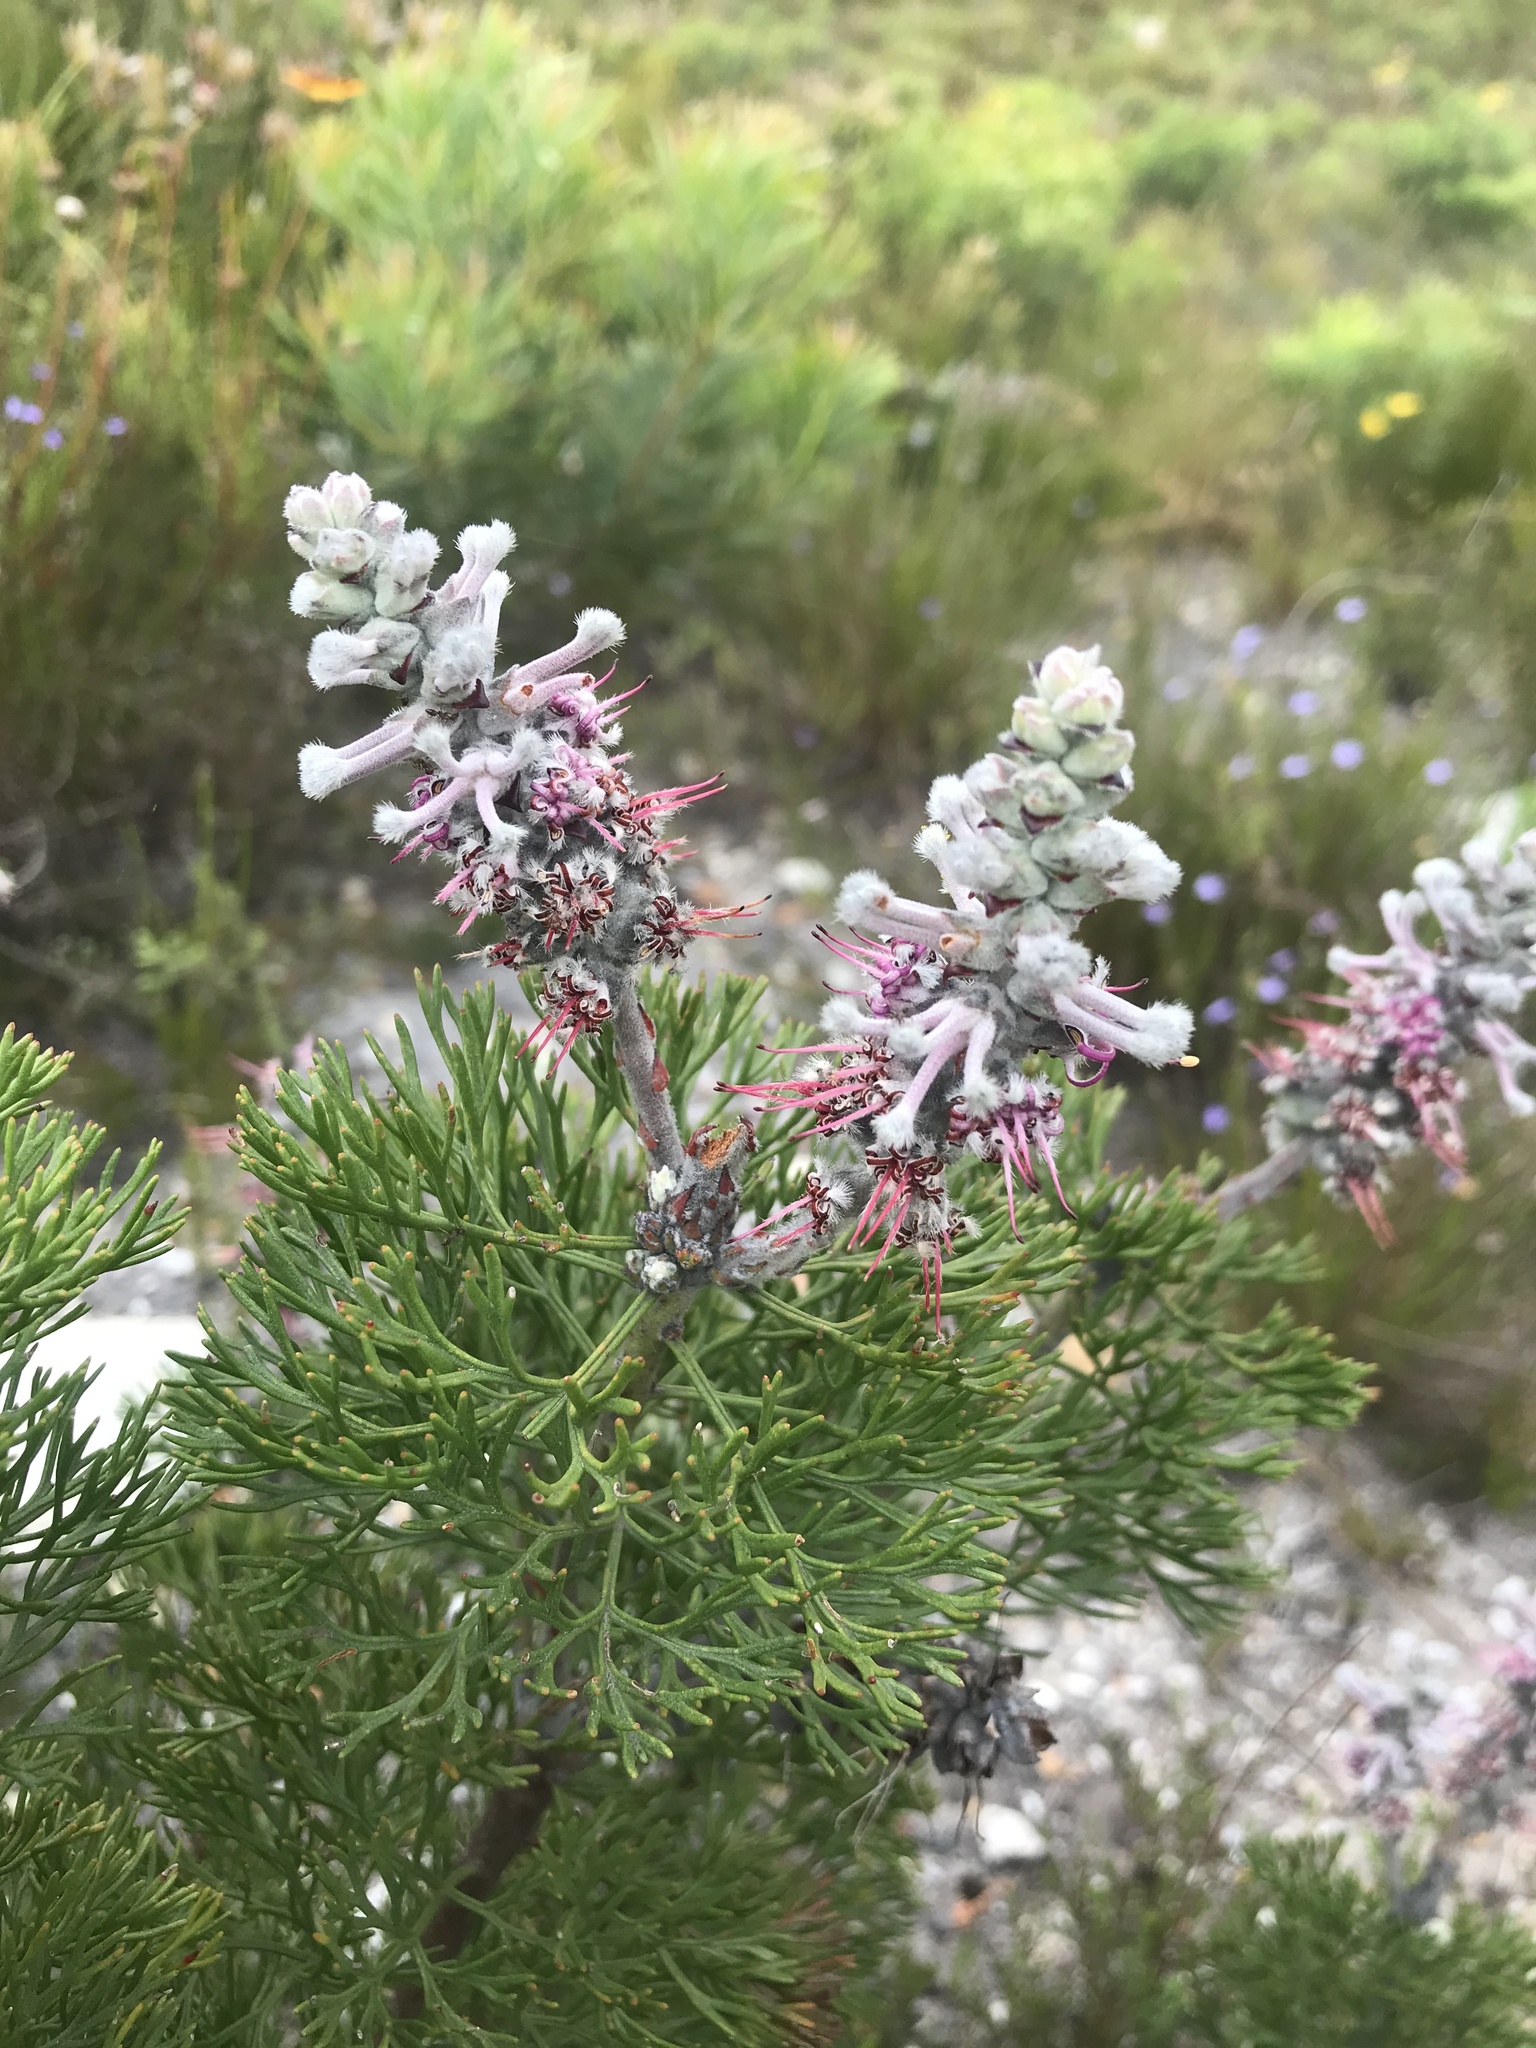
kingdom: Plantae
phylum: Tracheophyta
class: Magnoliopsida
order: Proteales
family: Proteaceae
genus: Paranomus
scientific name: Paranomus bolusii
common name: Overberg sceptre
